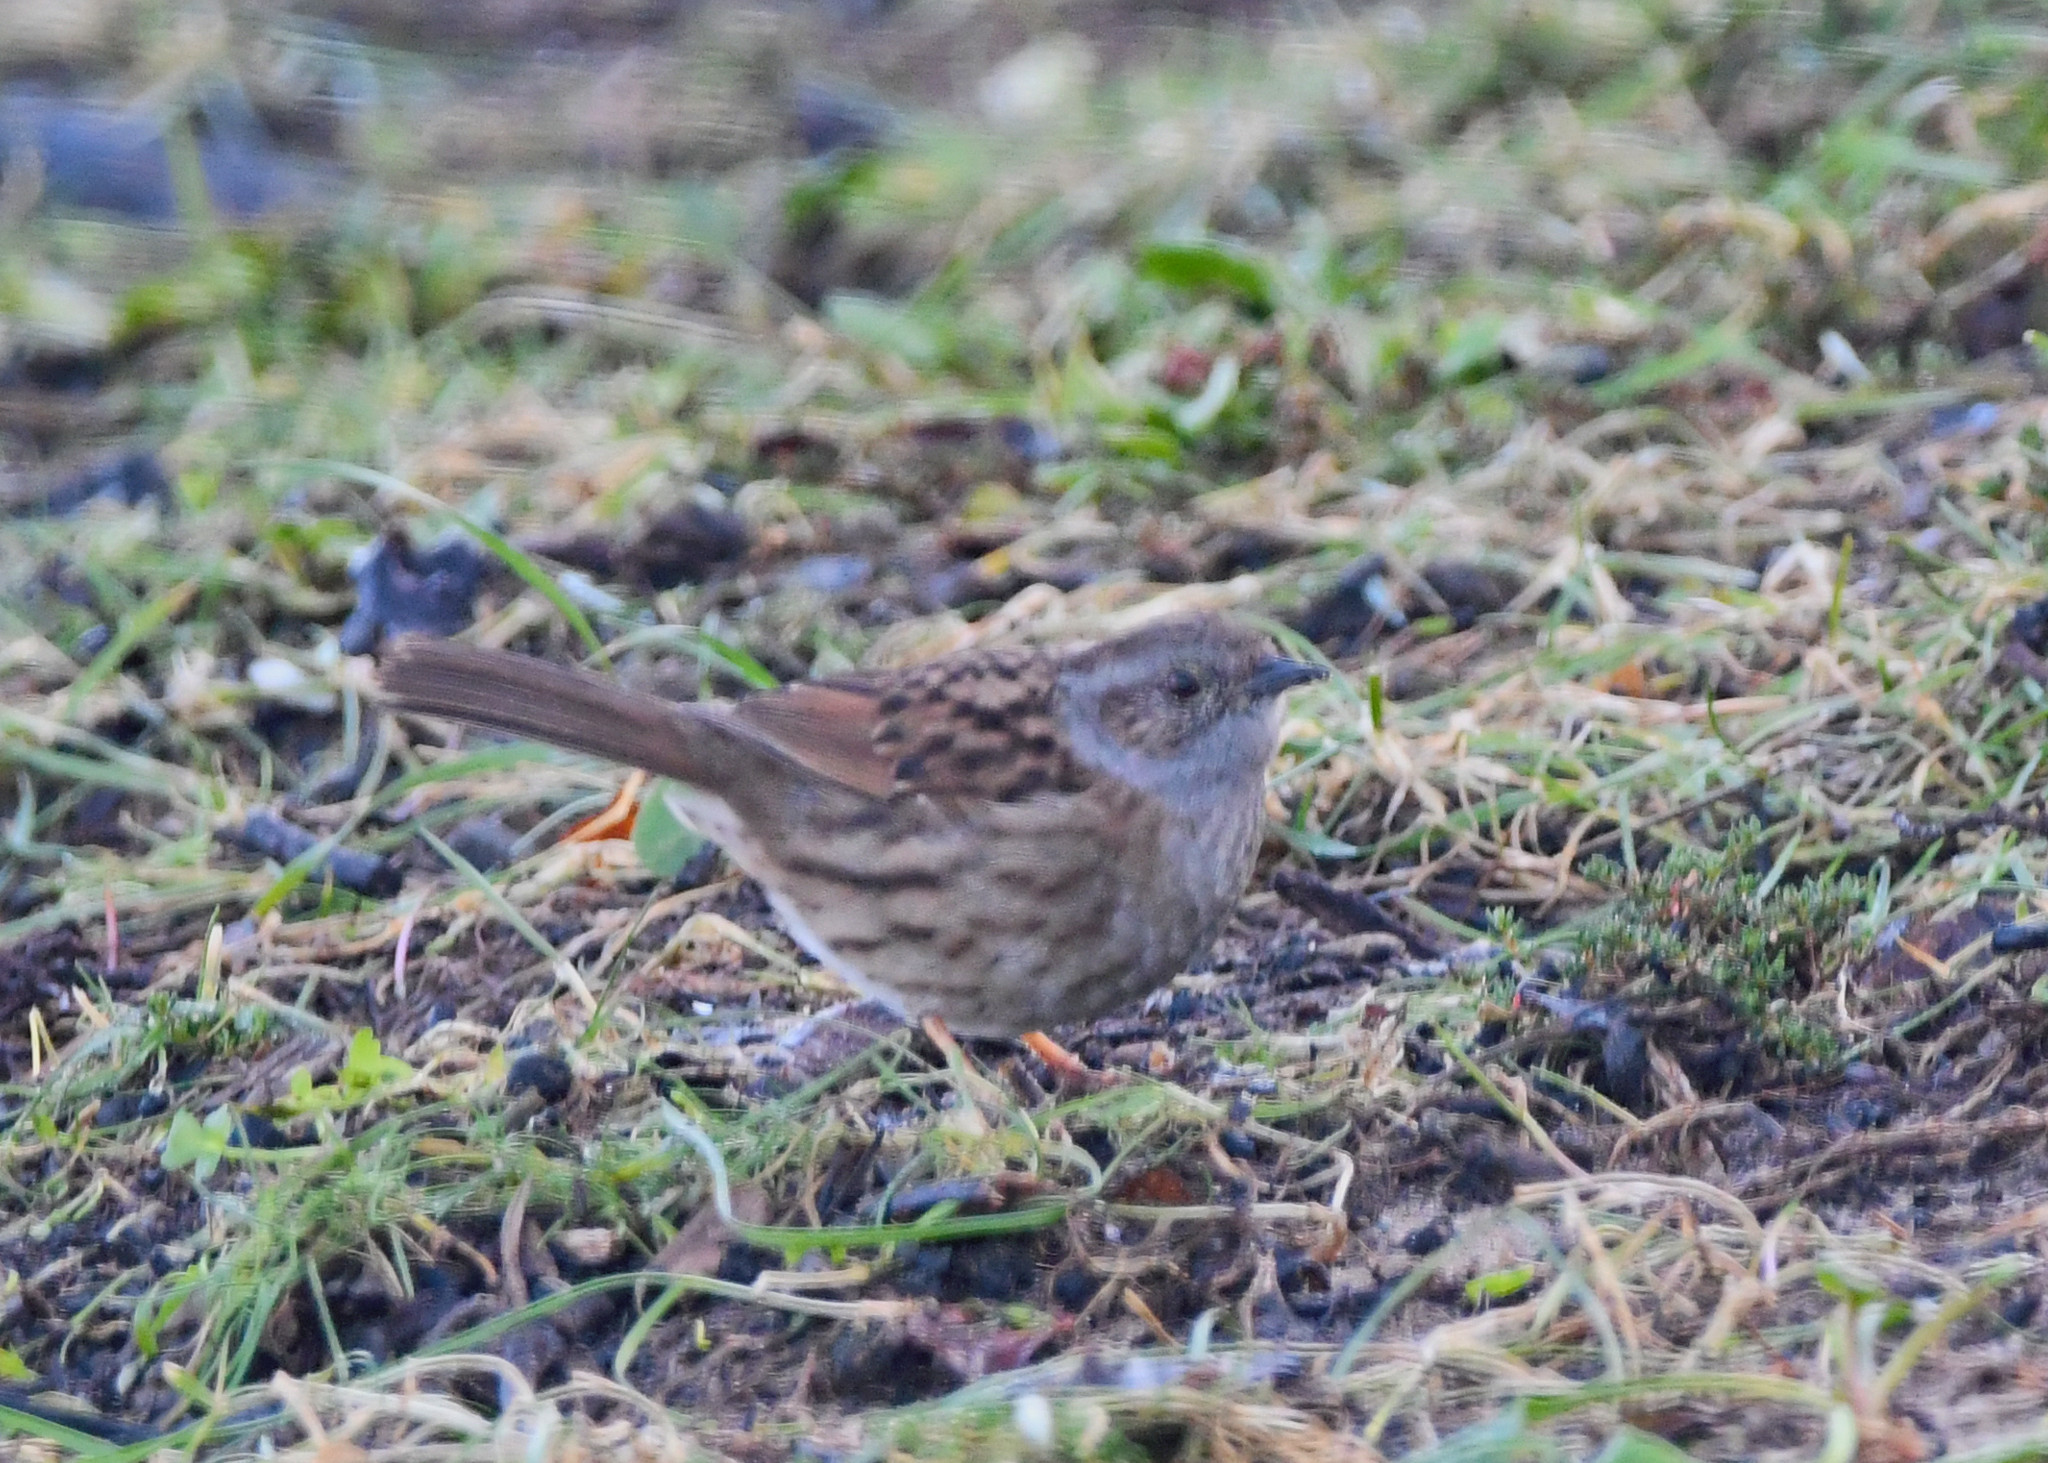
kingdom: Animalia
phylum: Chordata
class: Aves
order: Passeriformes
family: Prunellidae
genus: Prunella
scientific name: Prunella modularis
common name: Dunnock
